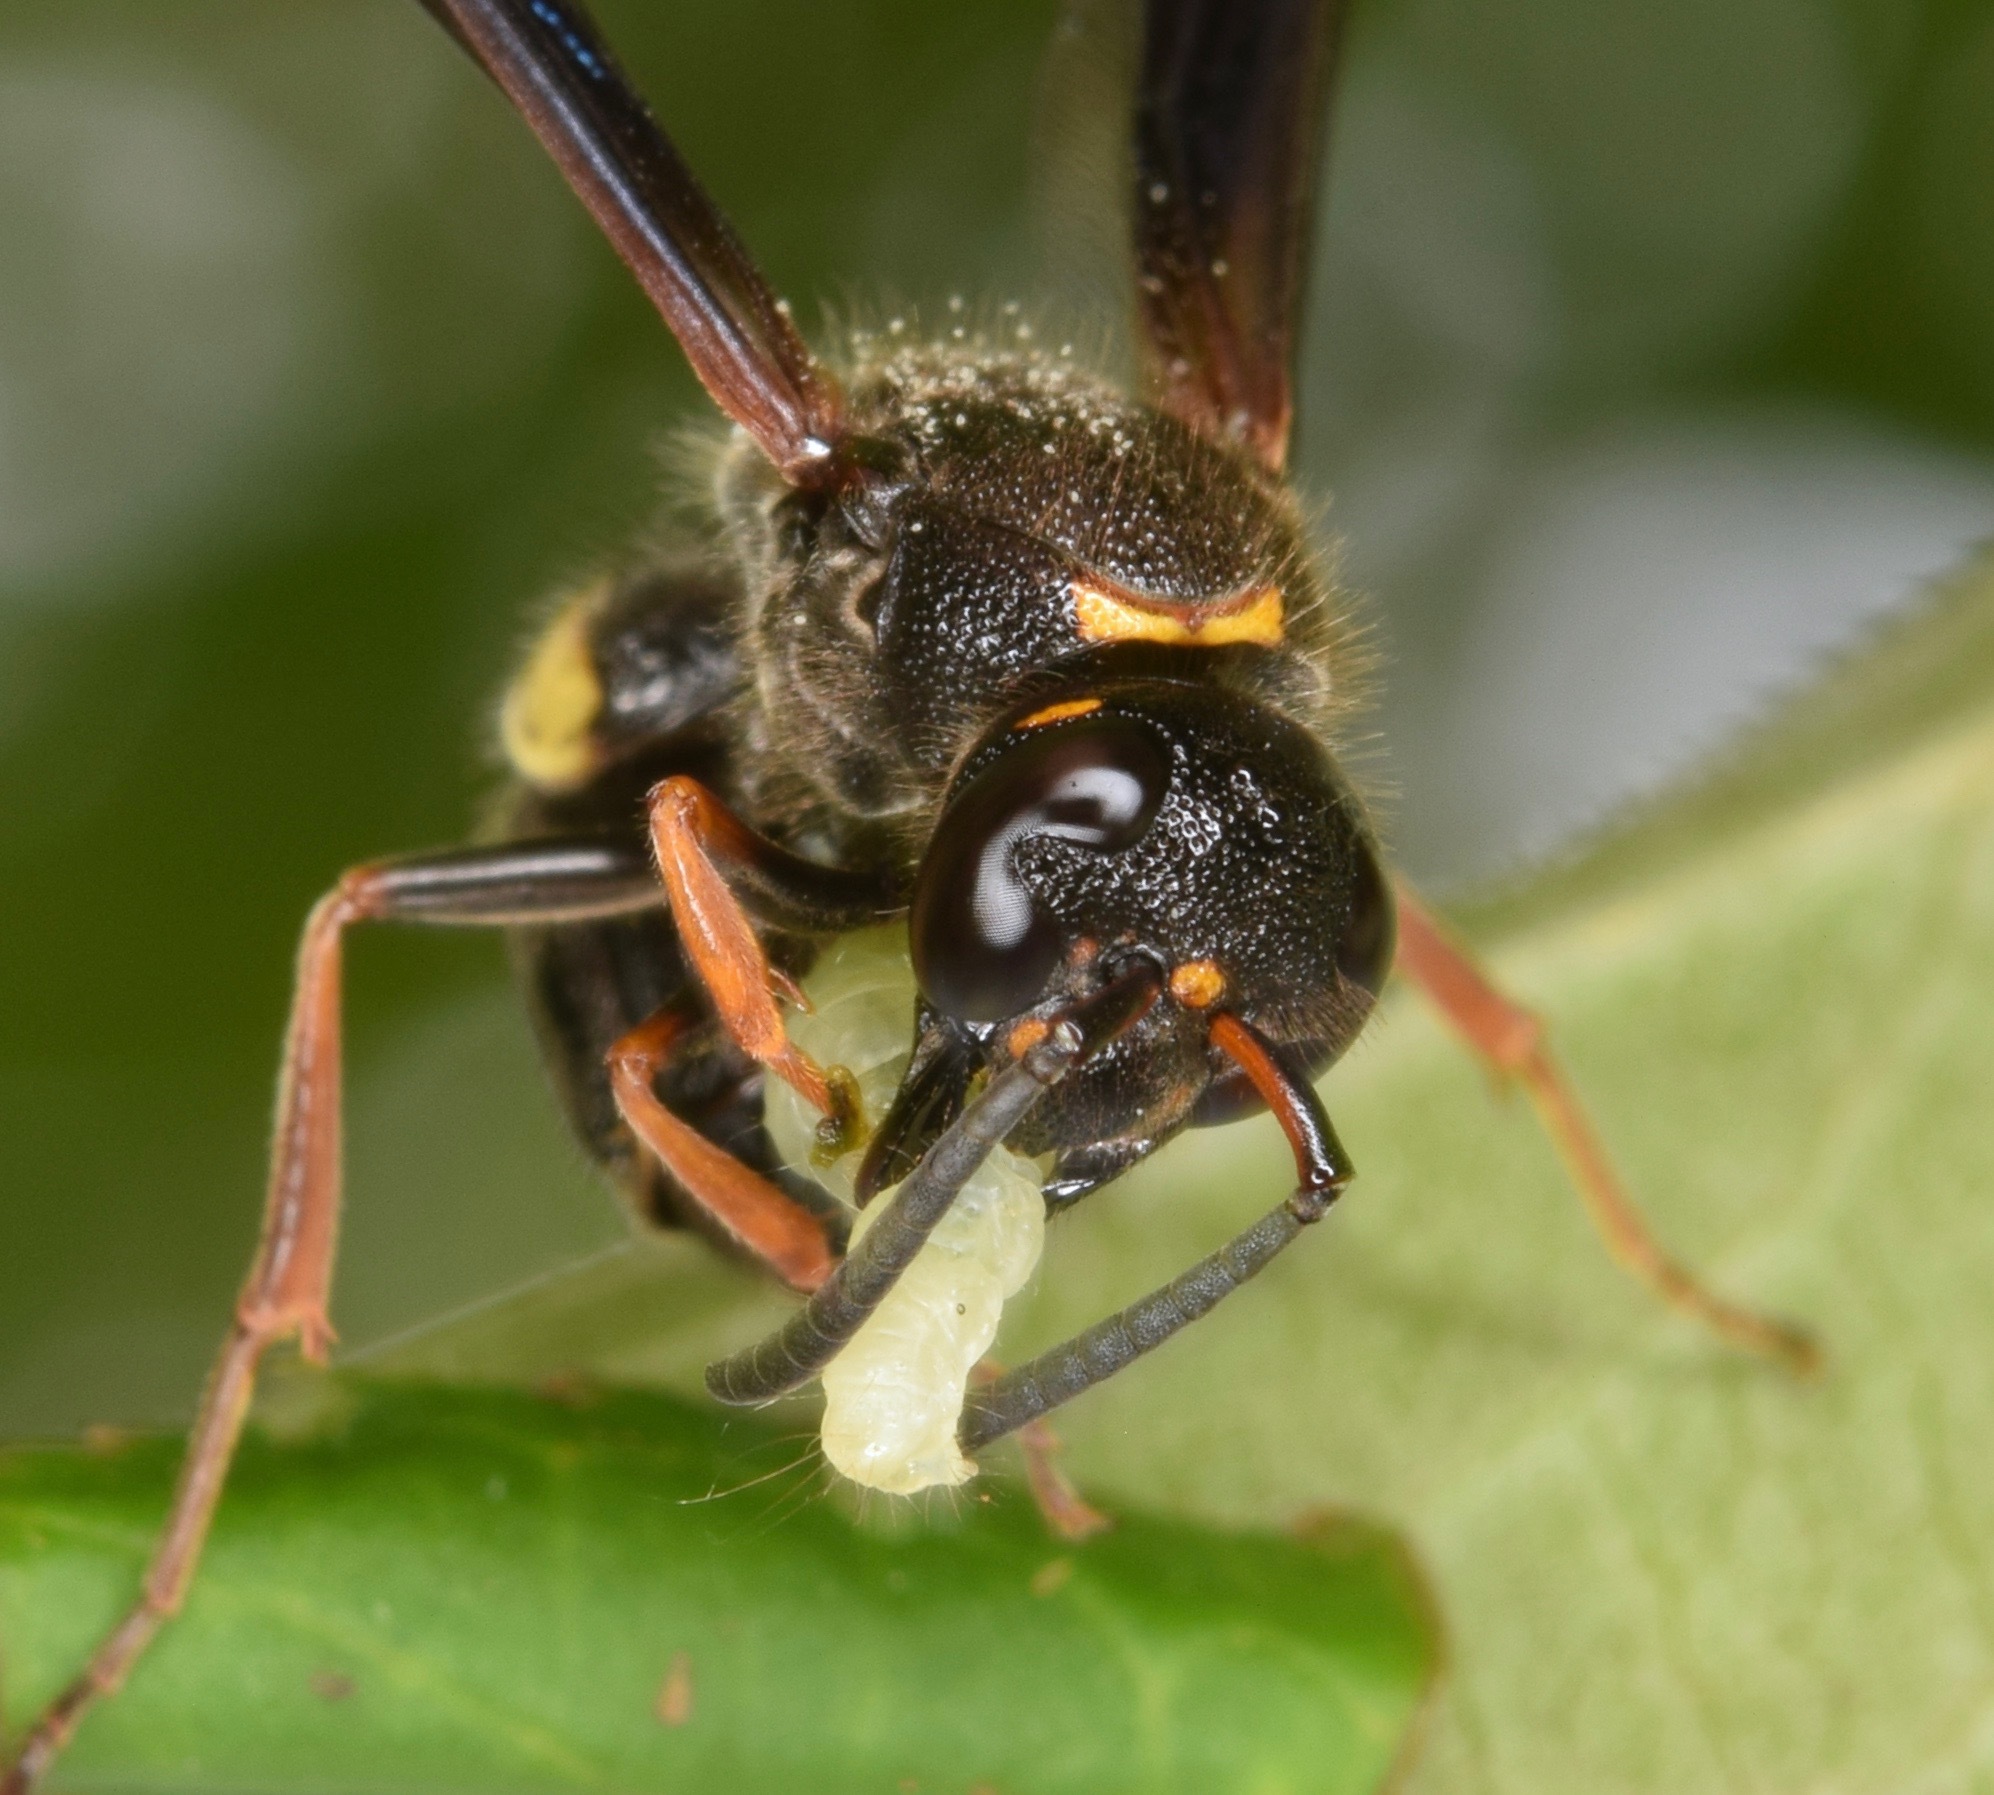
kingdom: Animalia
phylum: Arthropoda
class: Insecta
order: Hymenoptera
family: Vespidae
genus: Ancistrocerus
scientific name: Ancistrocerus unifasciatus
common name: One-banded mason wasp
